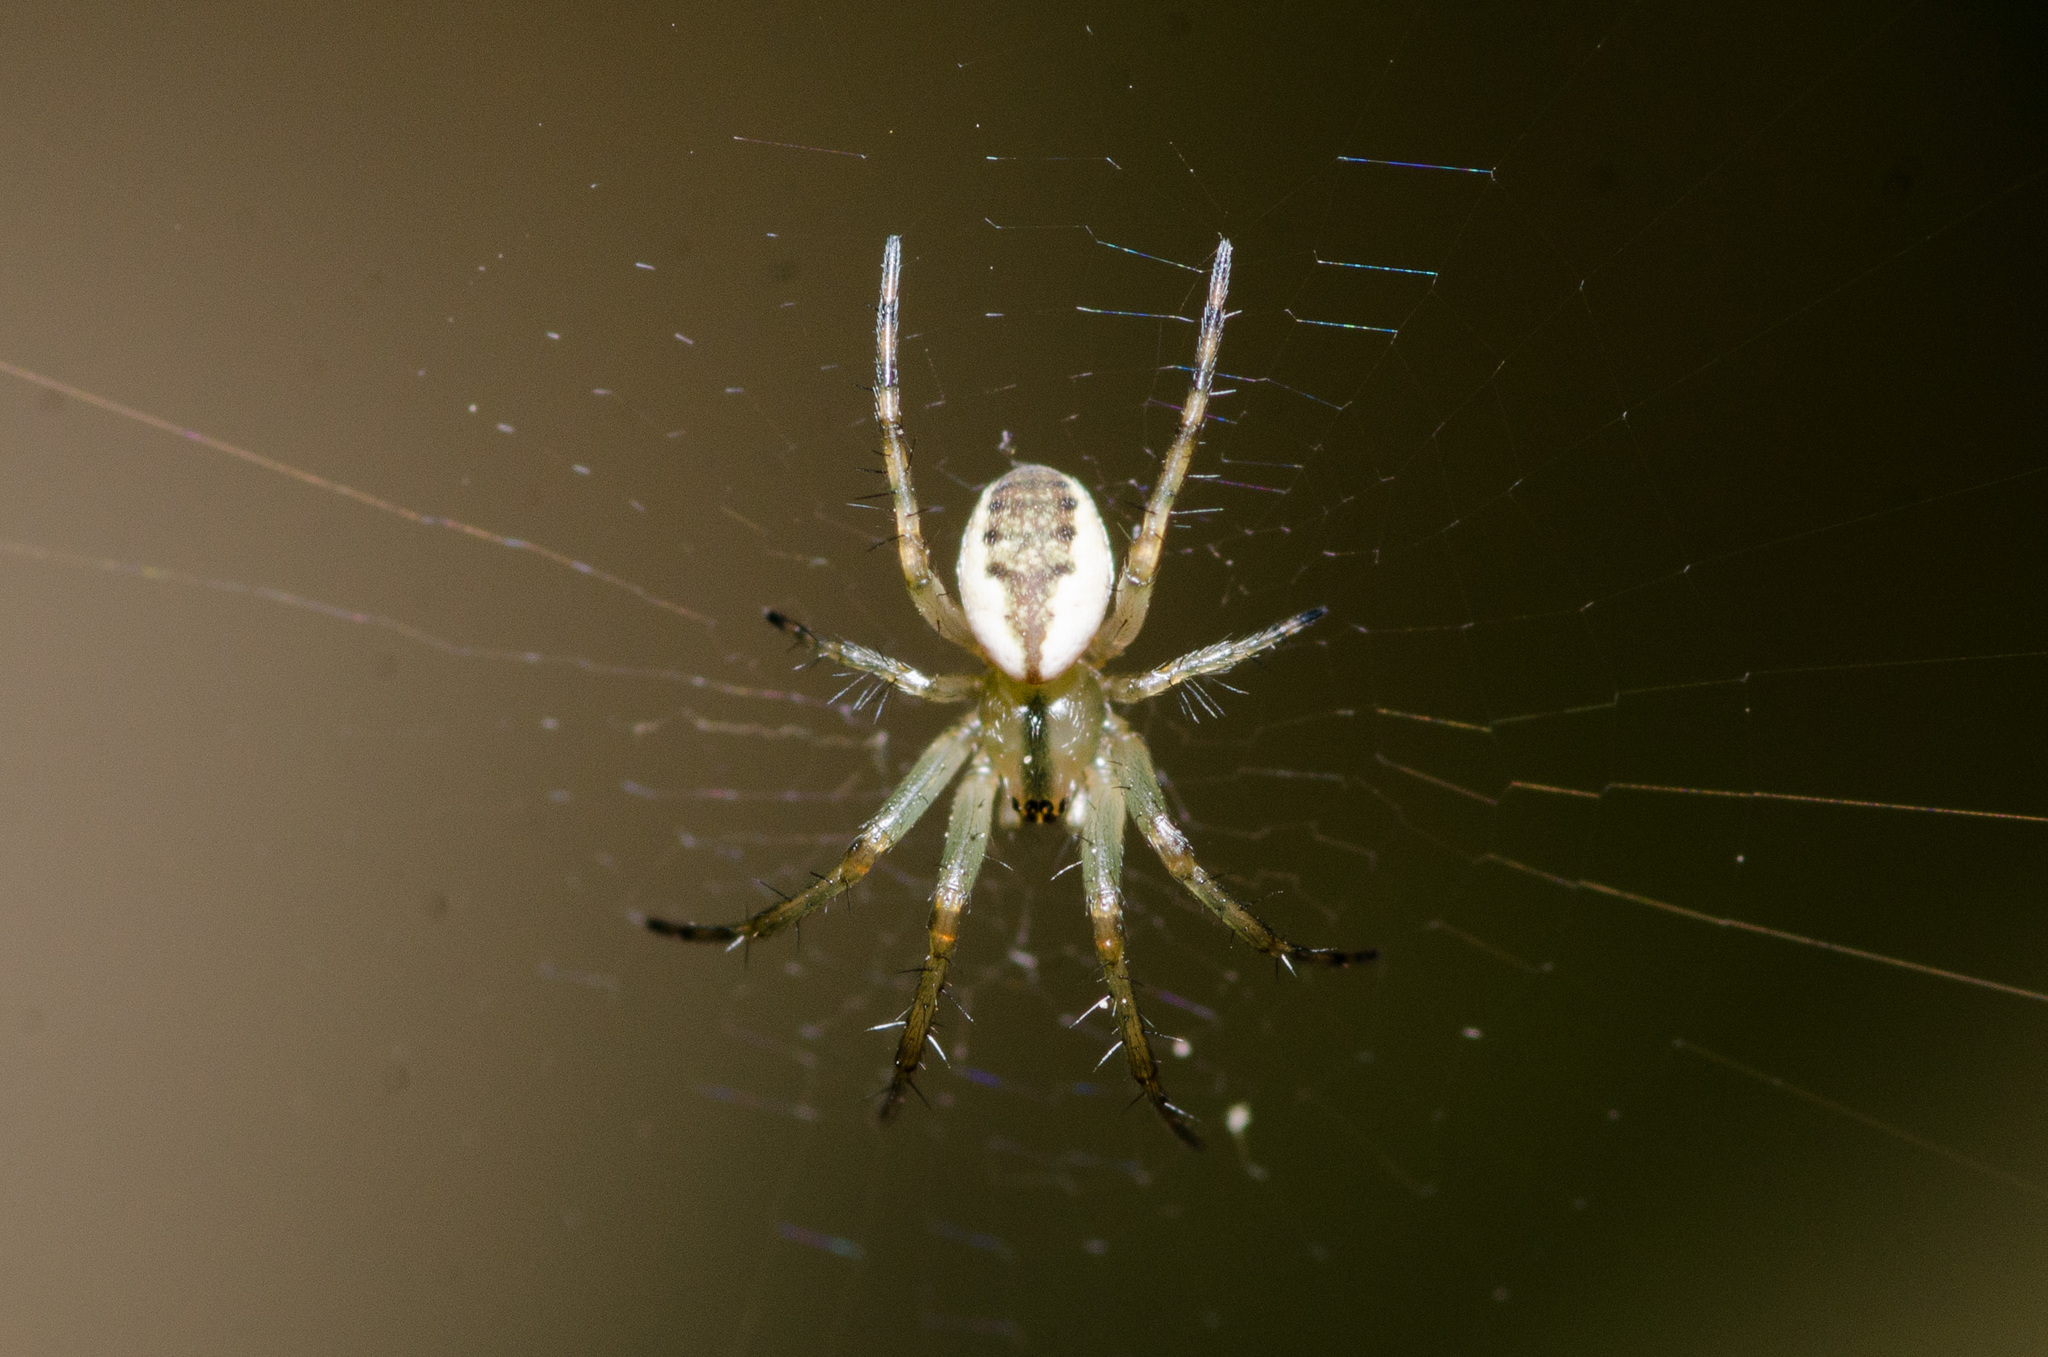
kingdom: Animalia
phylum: Arthropoda
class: Arachnida
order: Araneae
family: Araneidae
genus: Mangora
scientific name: Mangora placida
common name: Tuft-legged orbweaver
